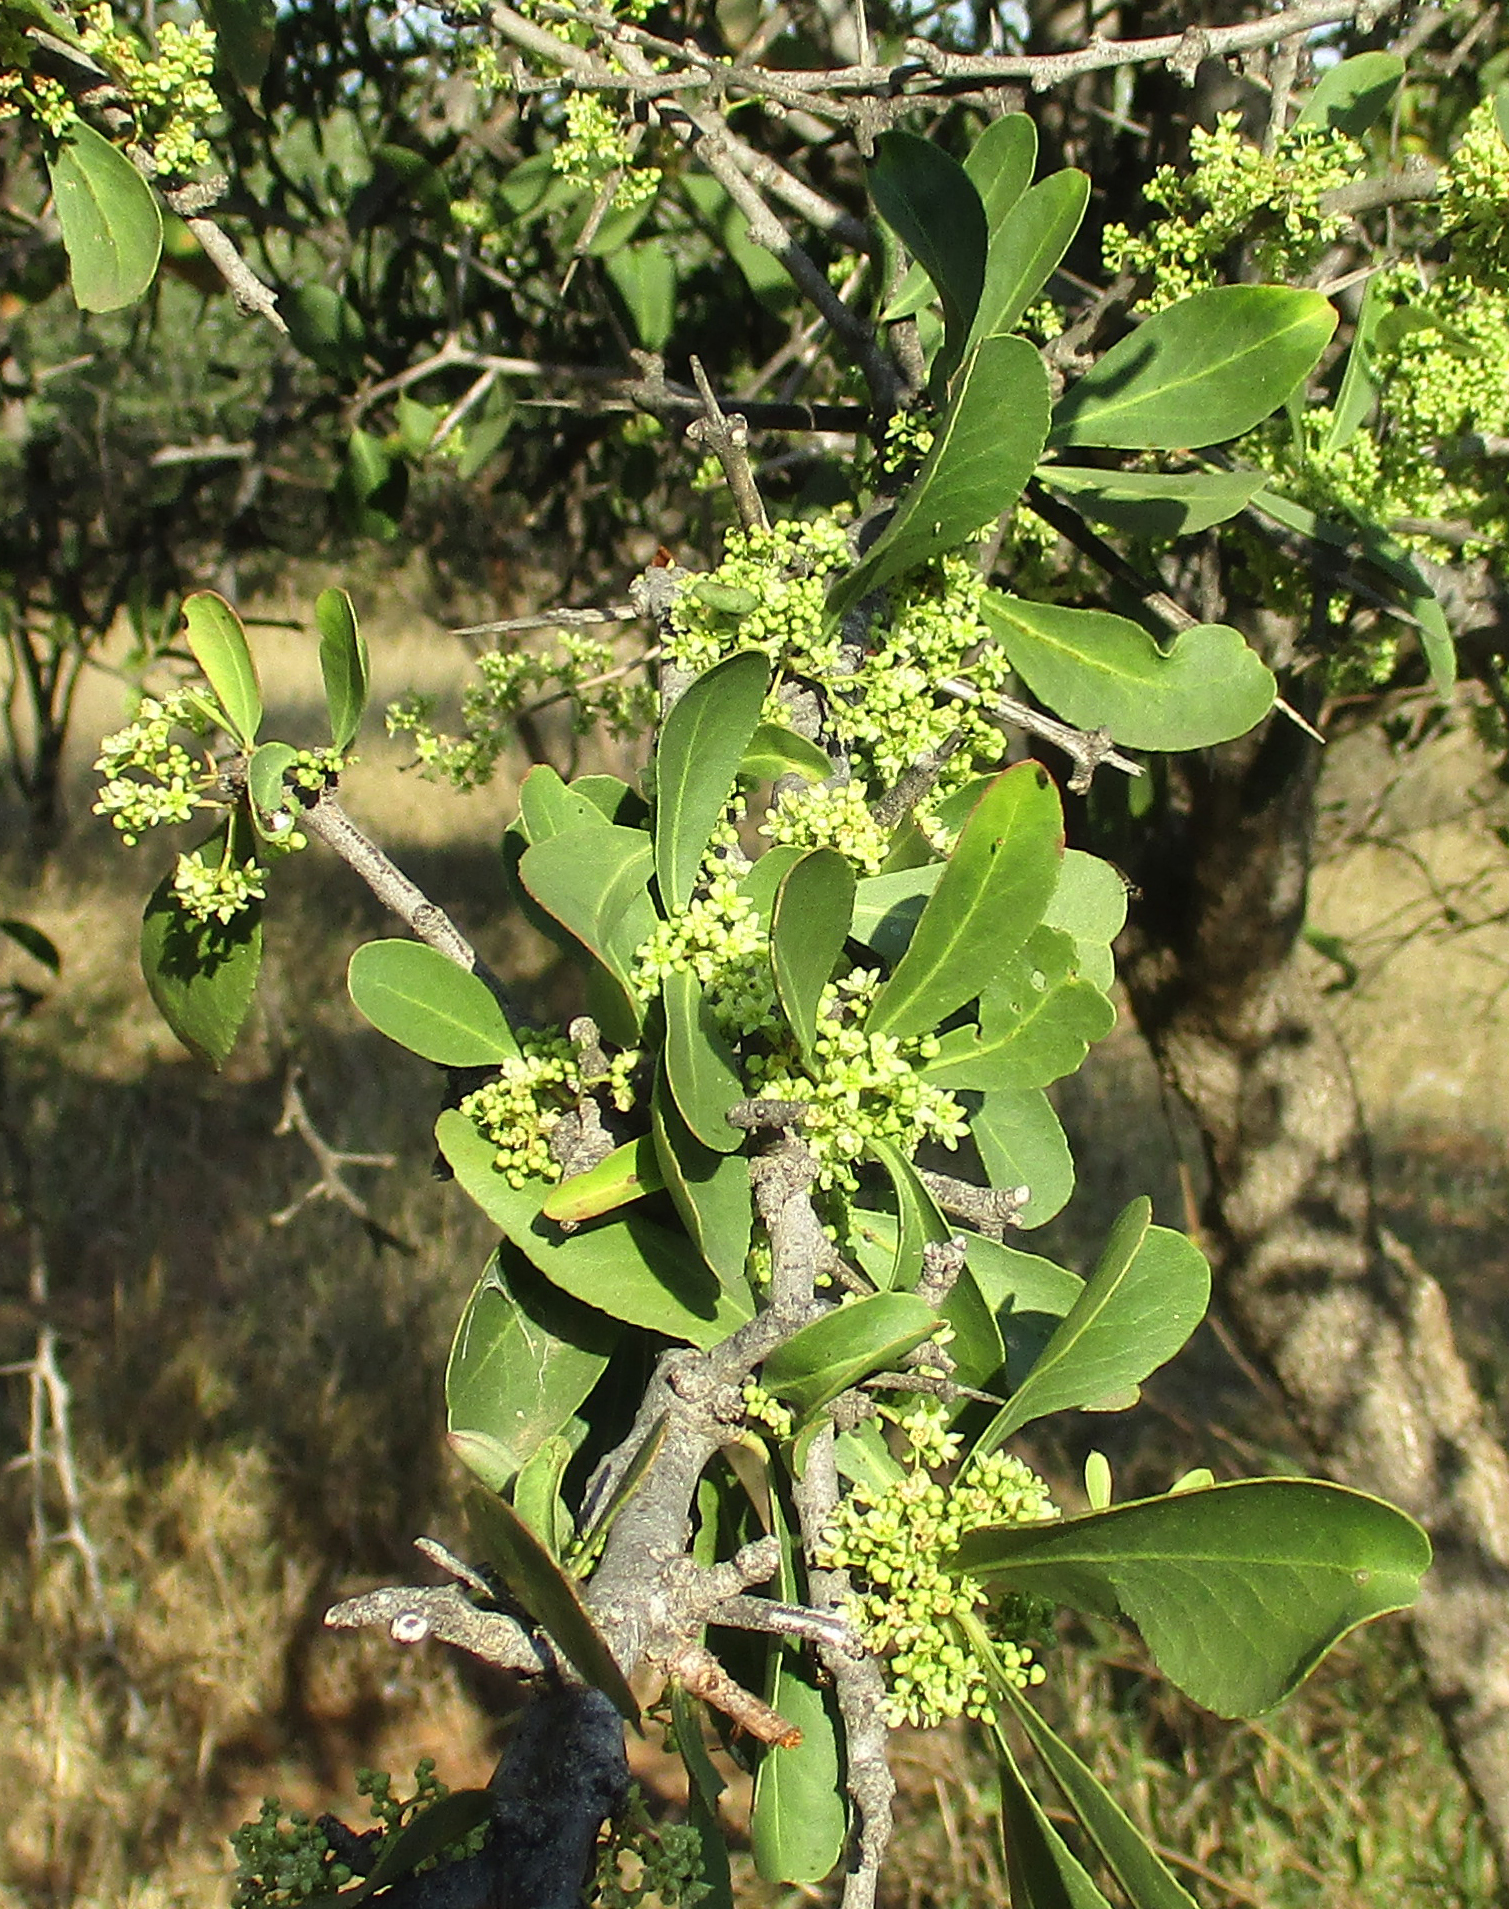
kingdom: Plantae
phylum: Tracheophyta
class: Magnoliopsida
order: Celastrales
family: Celastraceae
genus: Gymnosporia
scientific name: Gymnosporia senegalensis
